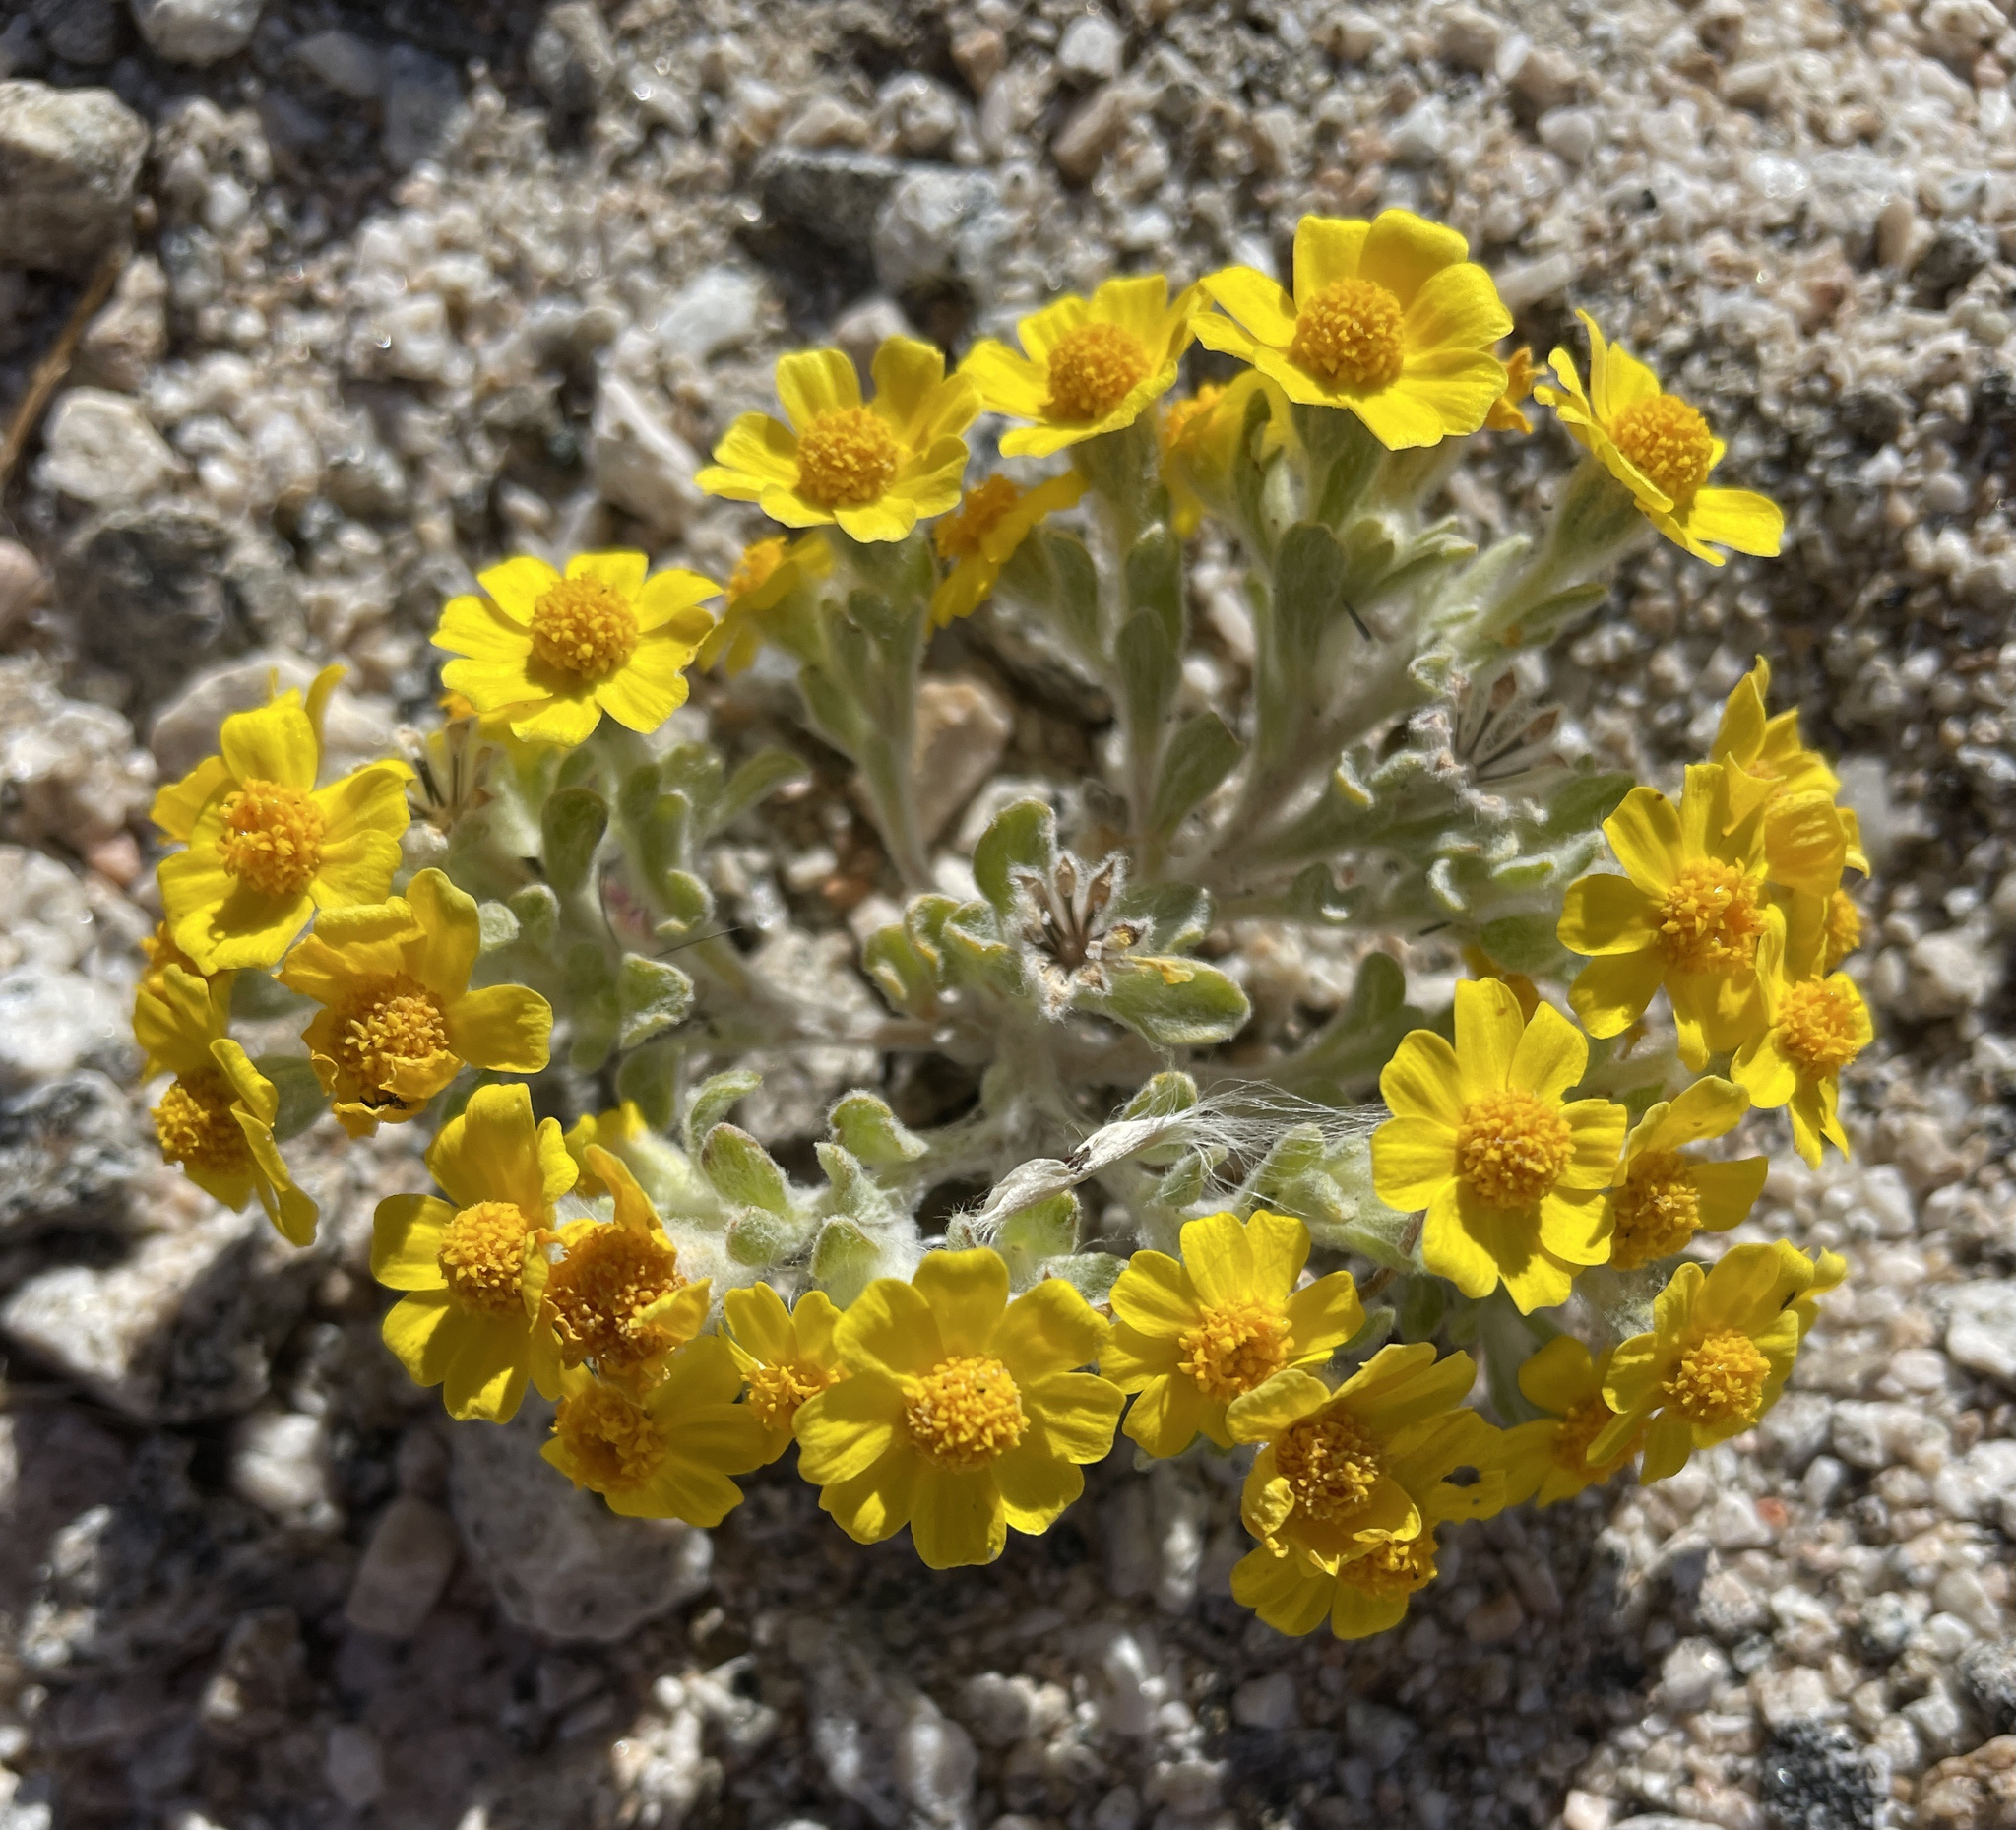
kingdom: Plantae
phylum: Tracheophyta
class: Magnoliopsida
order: Asterales
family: Asteraceae
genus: Eriophyllum
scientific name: Eriophyllum wallacei
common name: Wallace's woolly daisy
